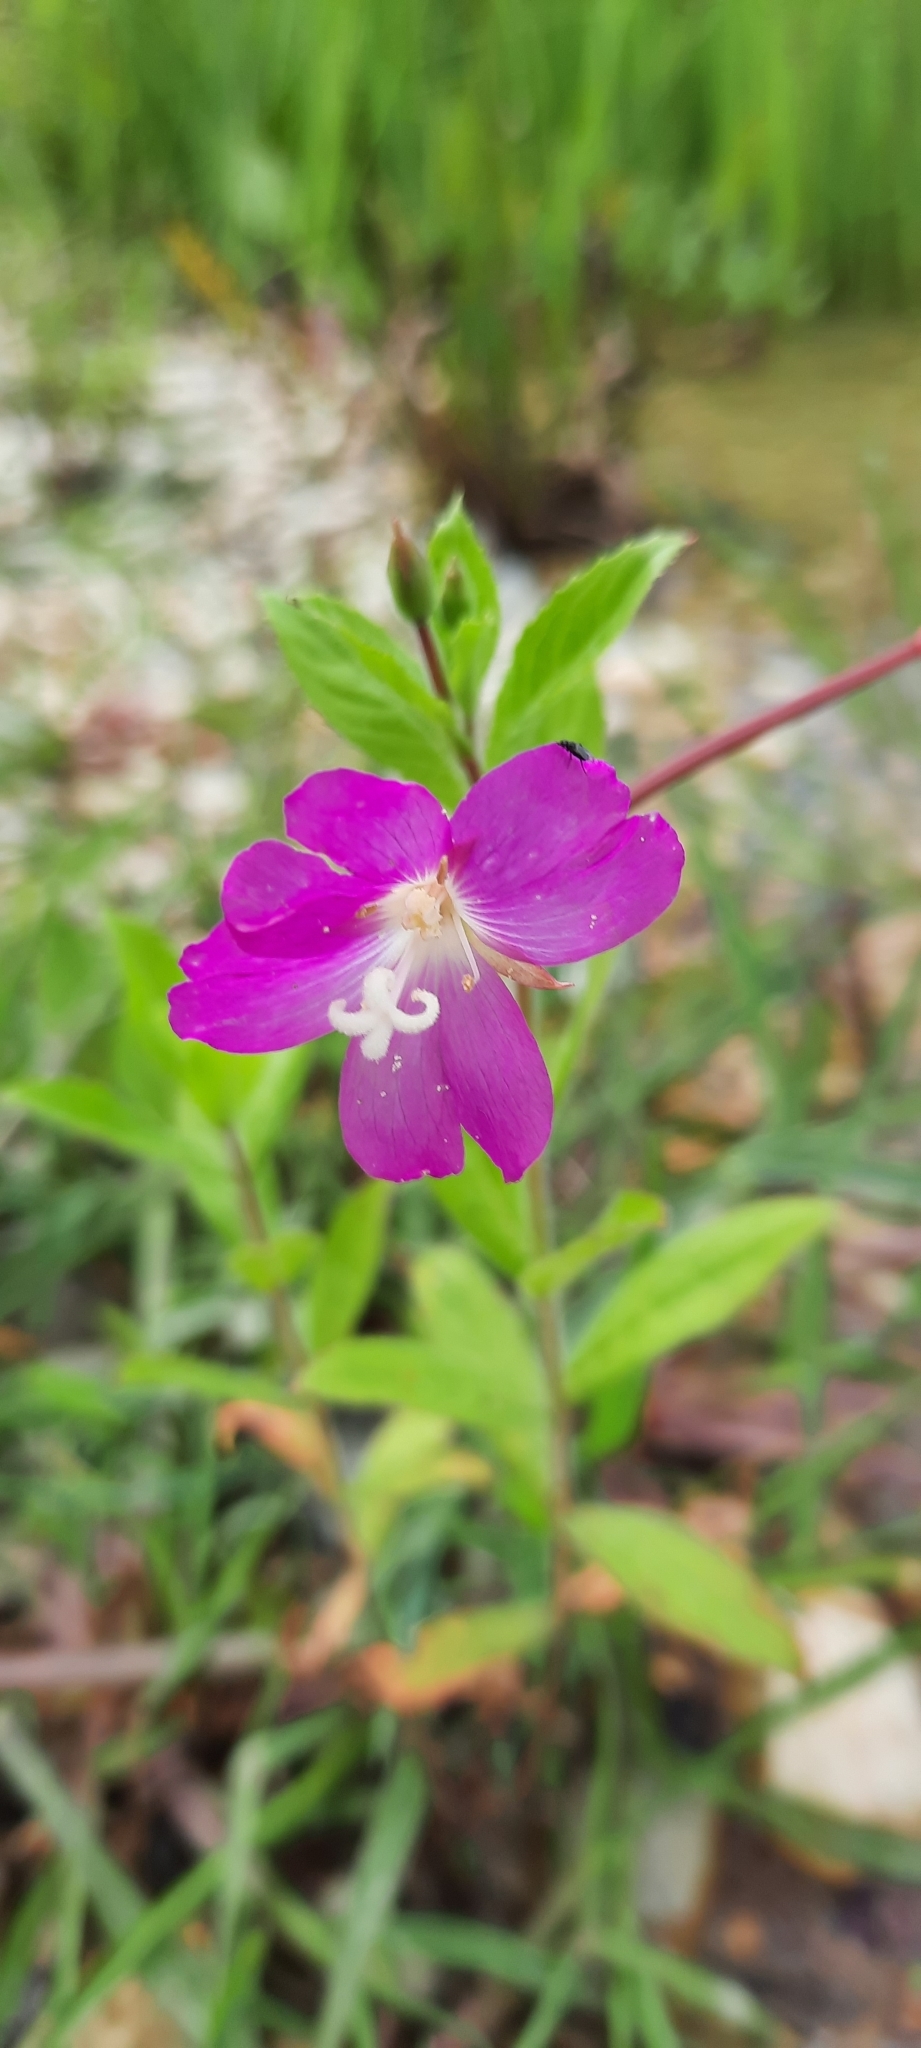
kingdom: Plantae
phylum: Tracheophyta
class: Magnoliopsida
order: Myrtales
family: Onagraceae
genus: Epilobium
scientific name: Epilobium hirsutum
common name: Great willowherb
